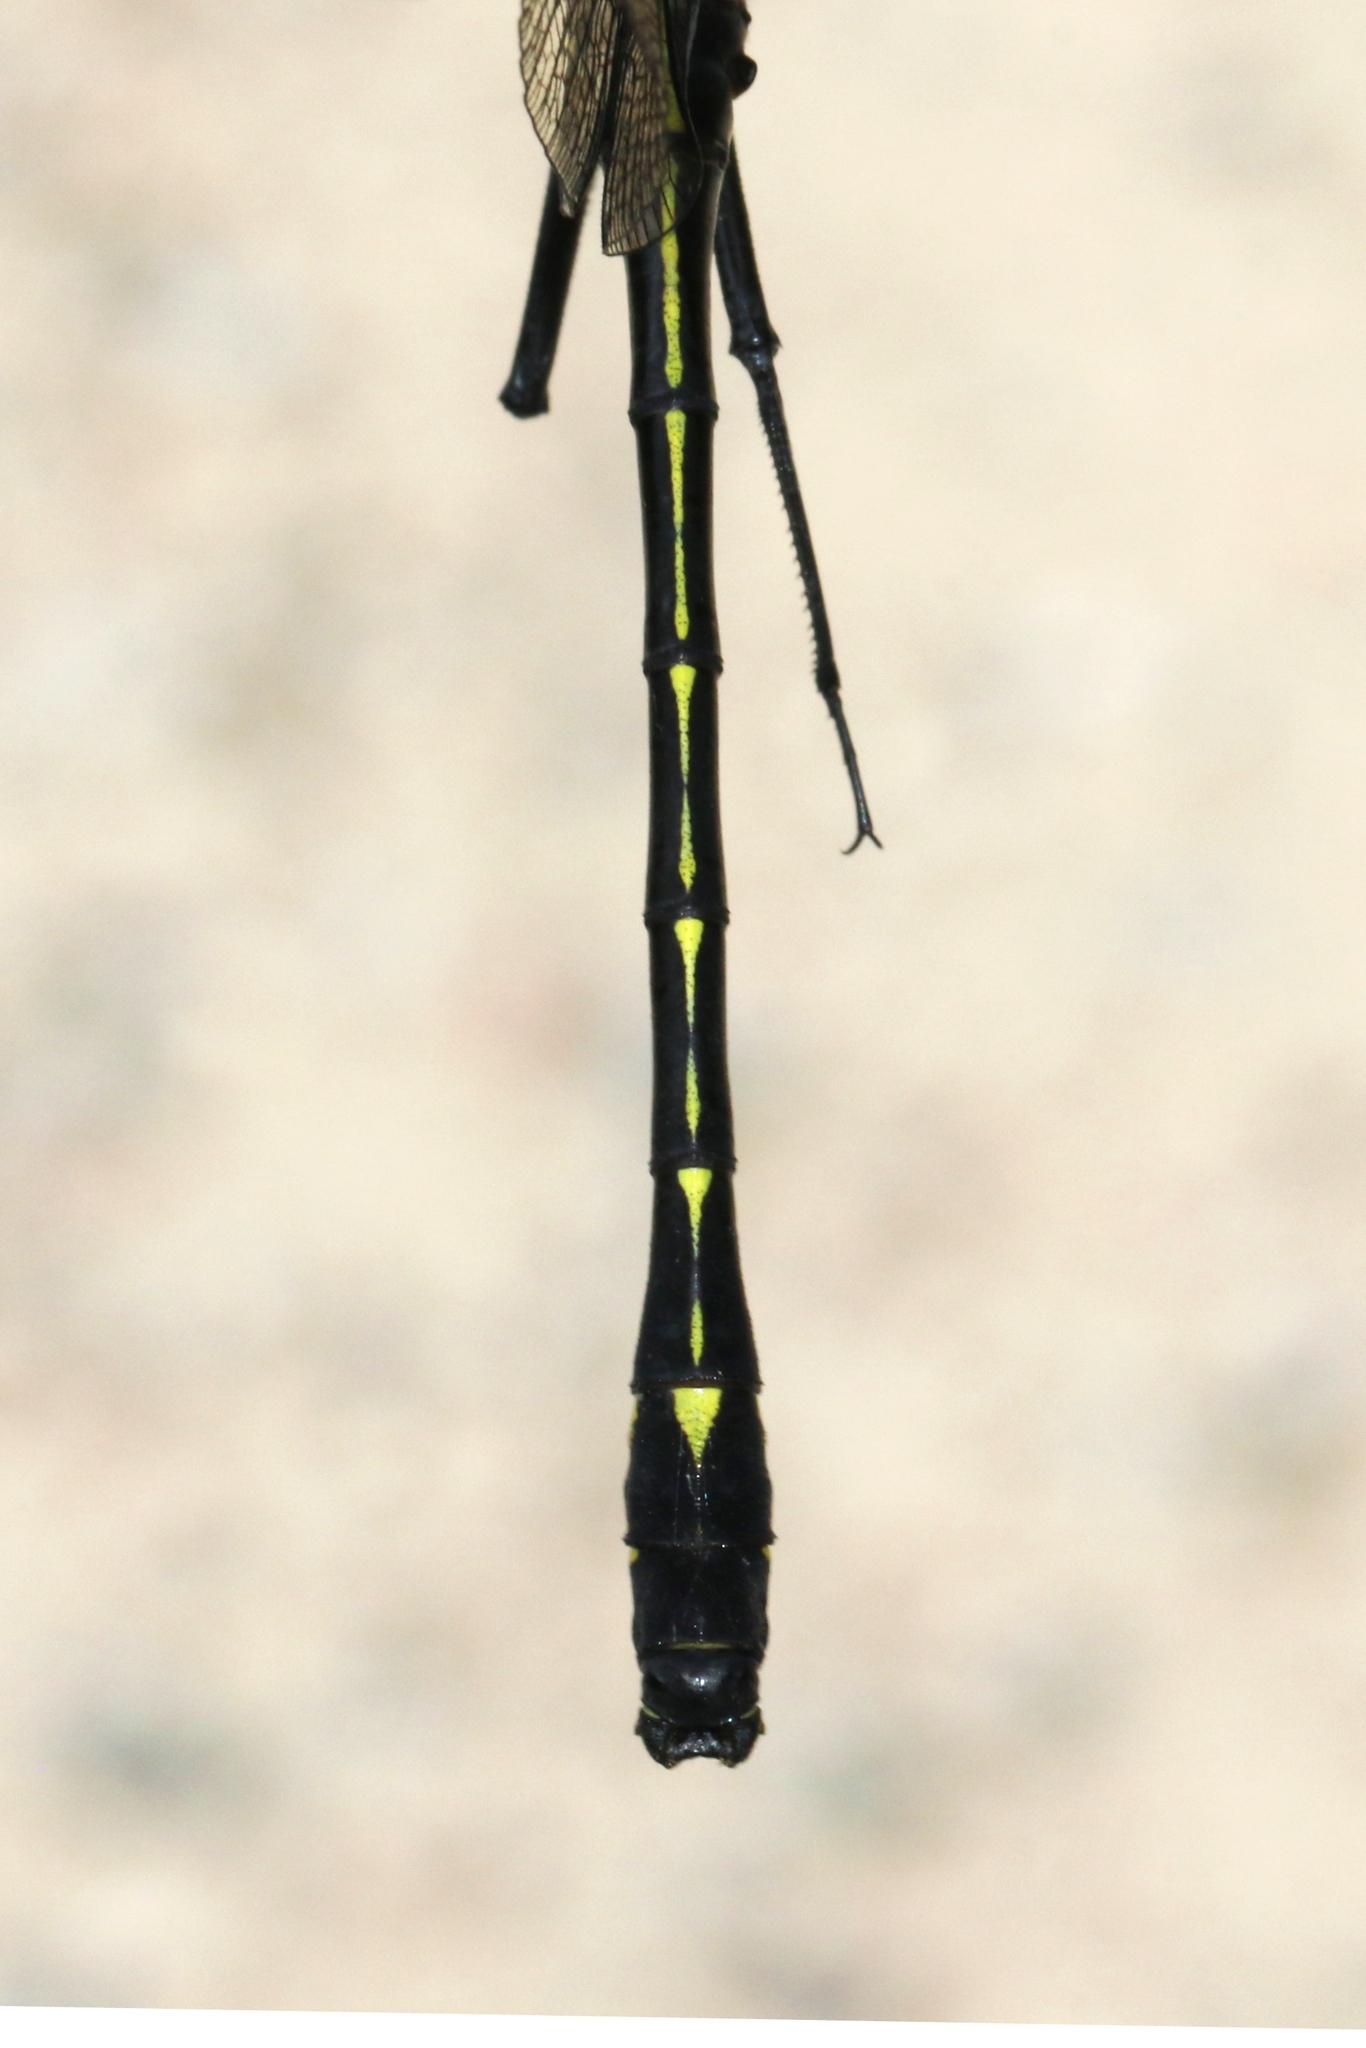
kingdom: Animalia
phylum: Arthropoda
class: Insecta
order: Odonata
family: Gomphidae
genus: Hagenius
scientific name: Hagenius brevistylus
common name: Dragonhunter
